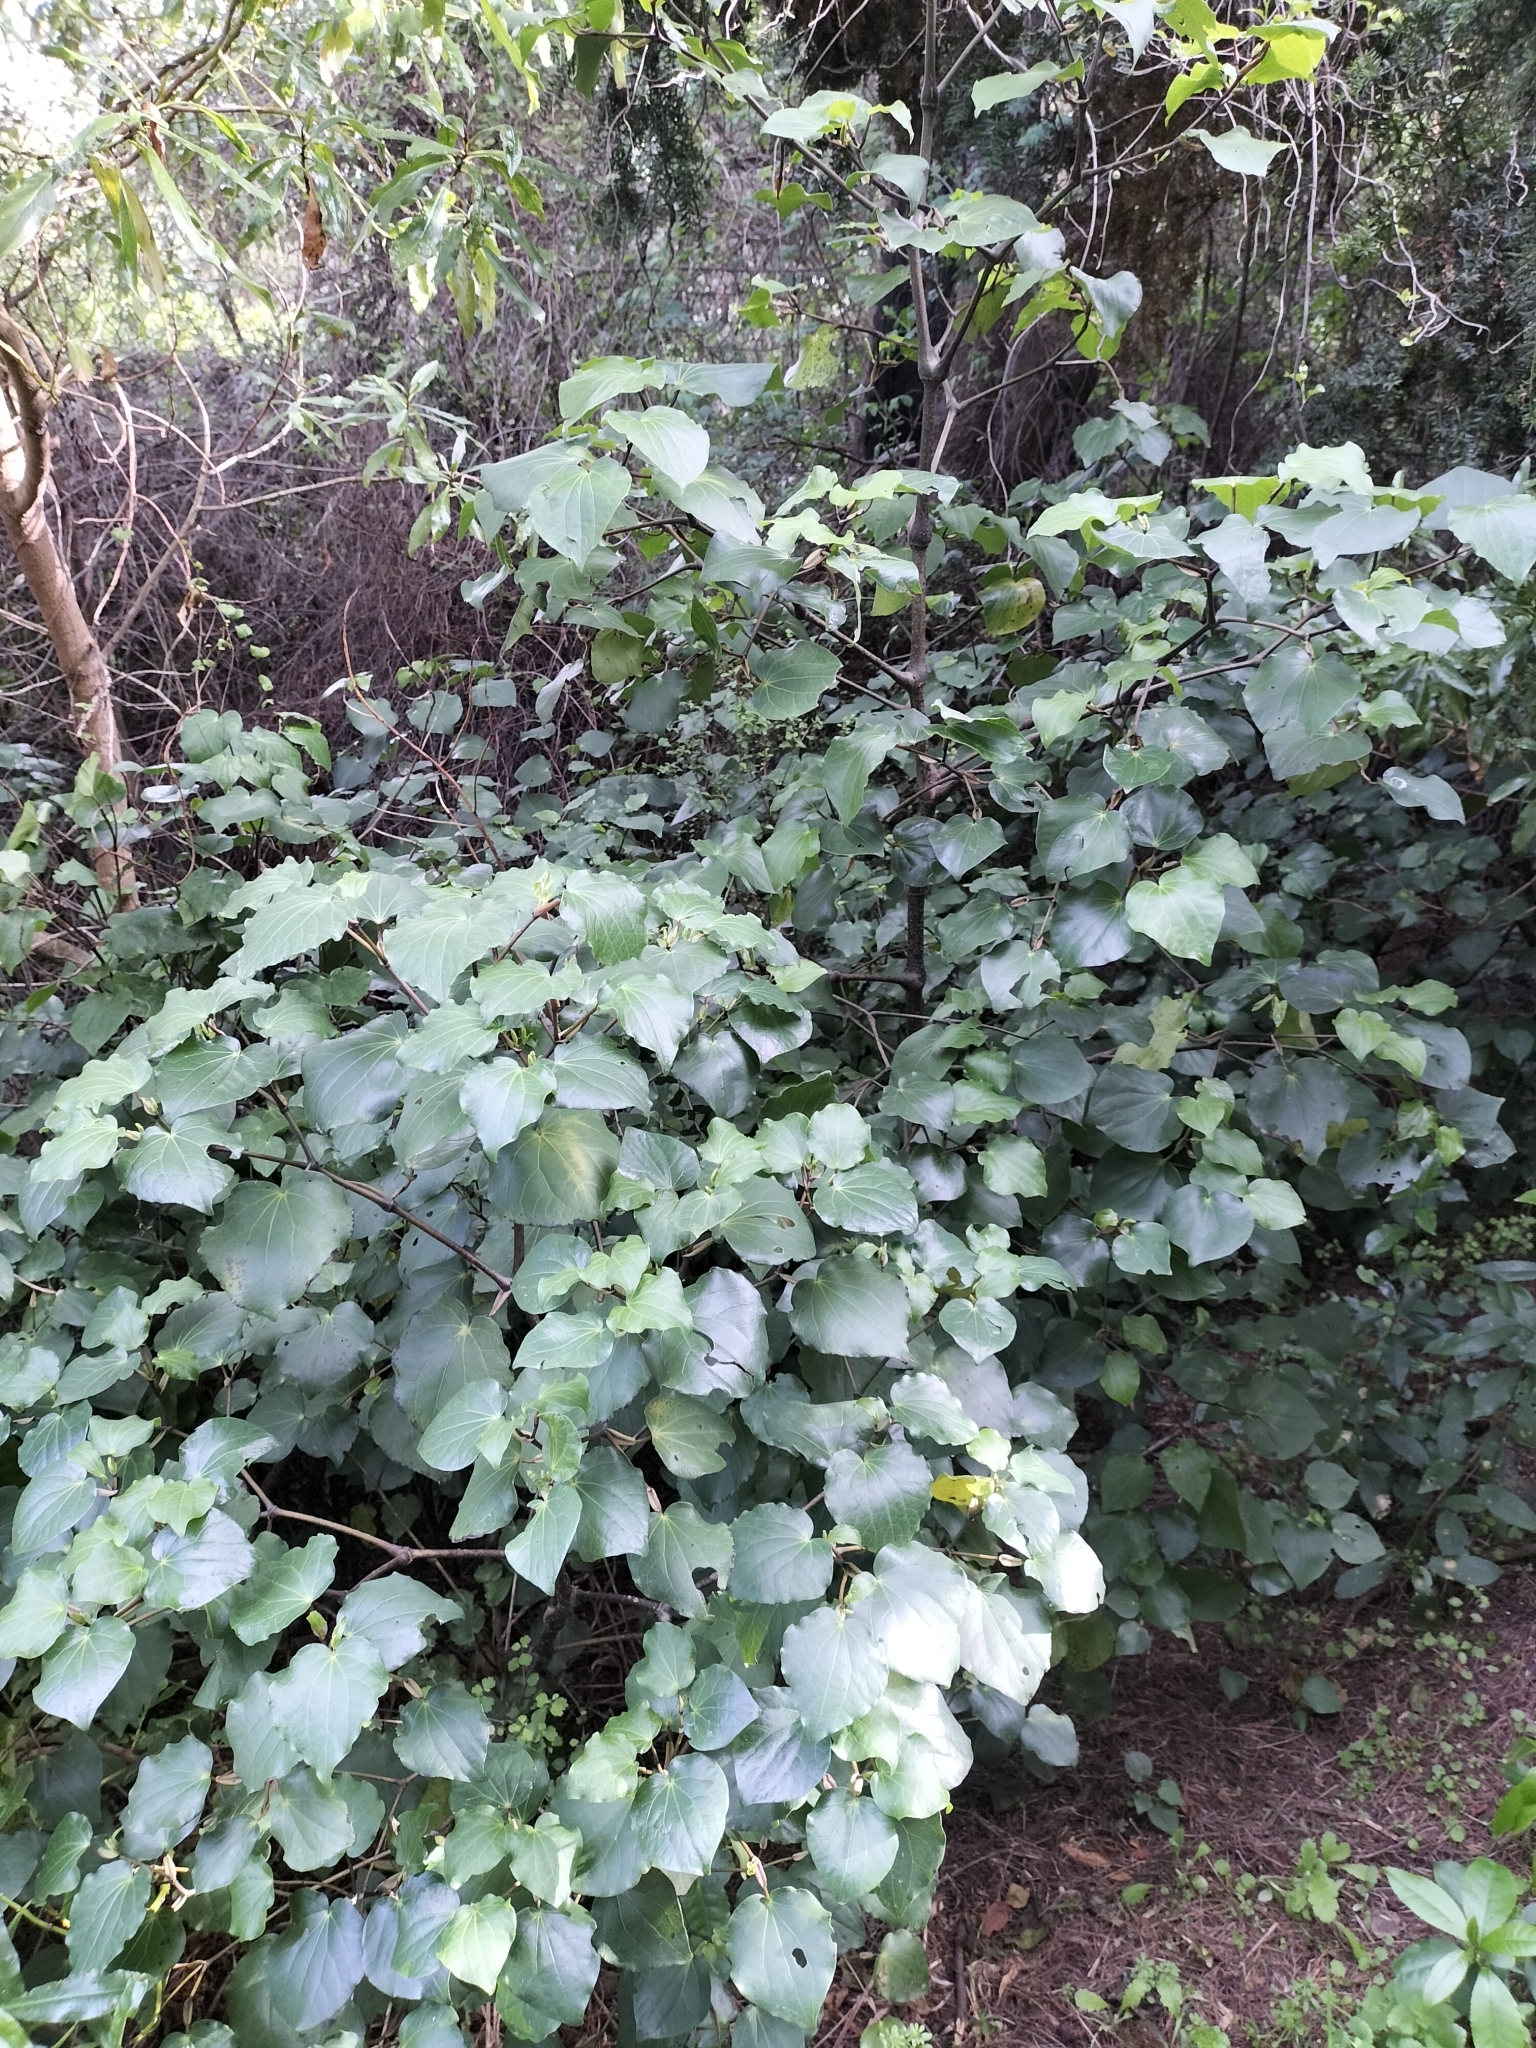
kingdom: Plantae
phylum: Tracheophyta
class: Magnoliopsida
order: Piperales
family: Piperaceae
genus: Macropiper
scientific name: Macropiper excelsum
